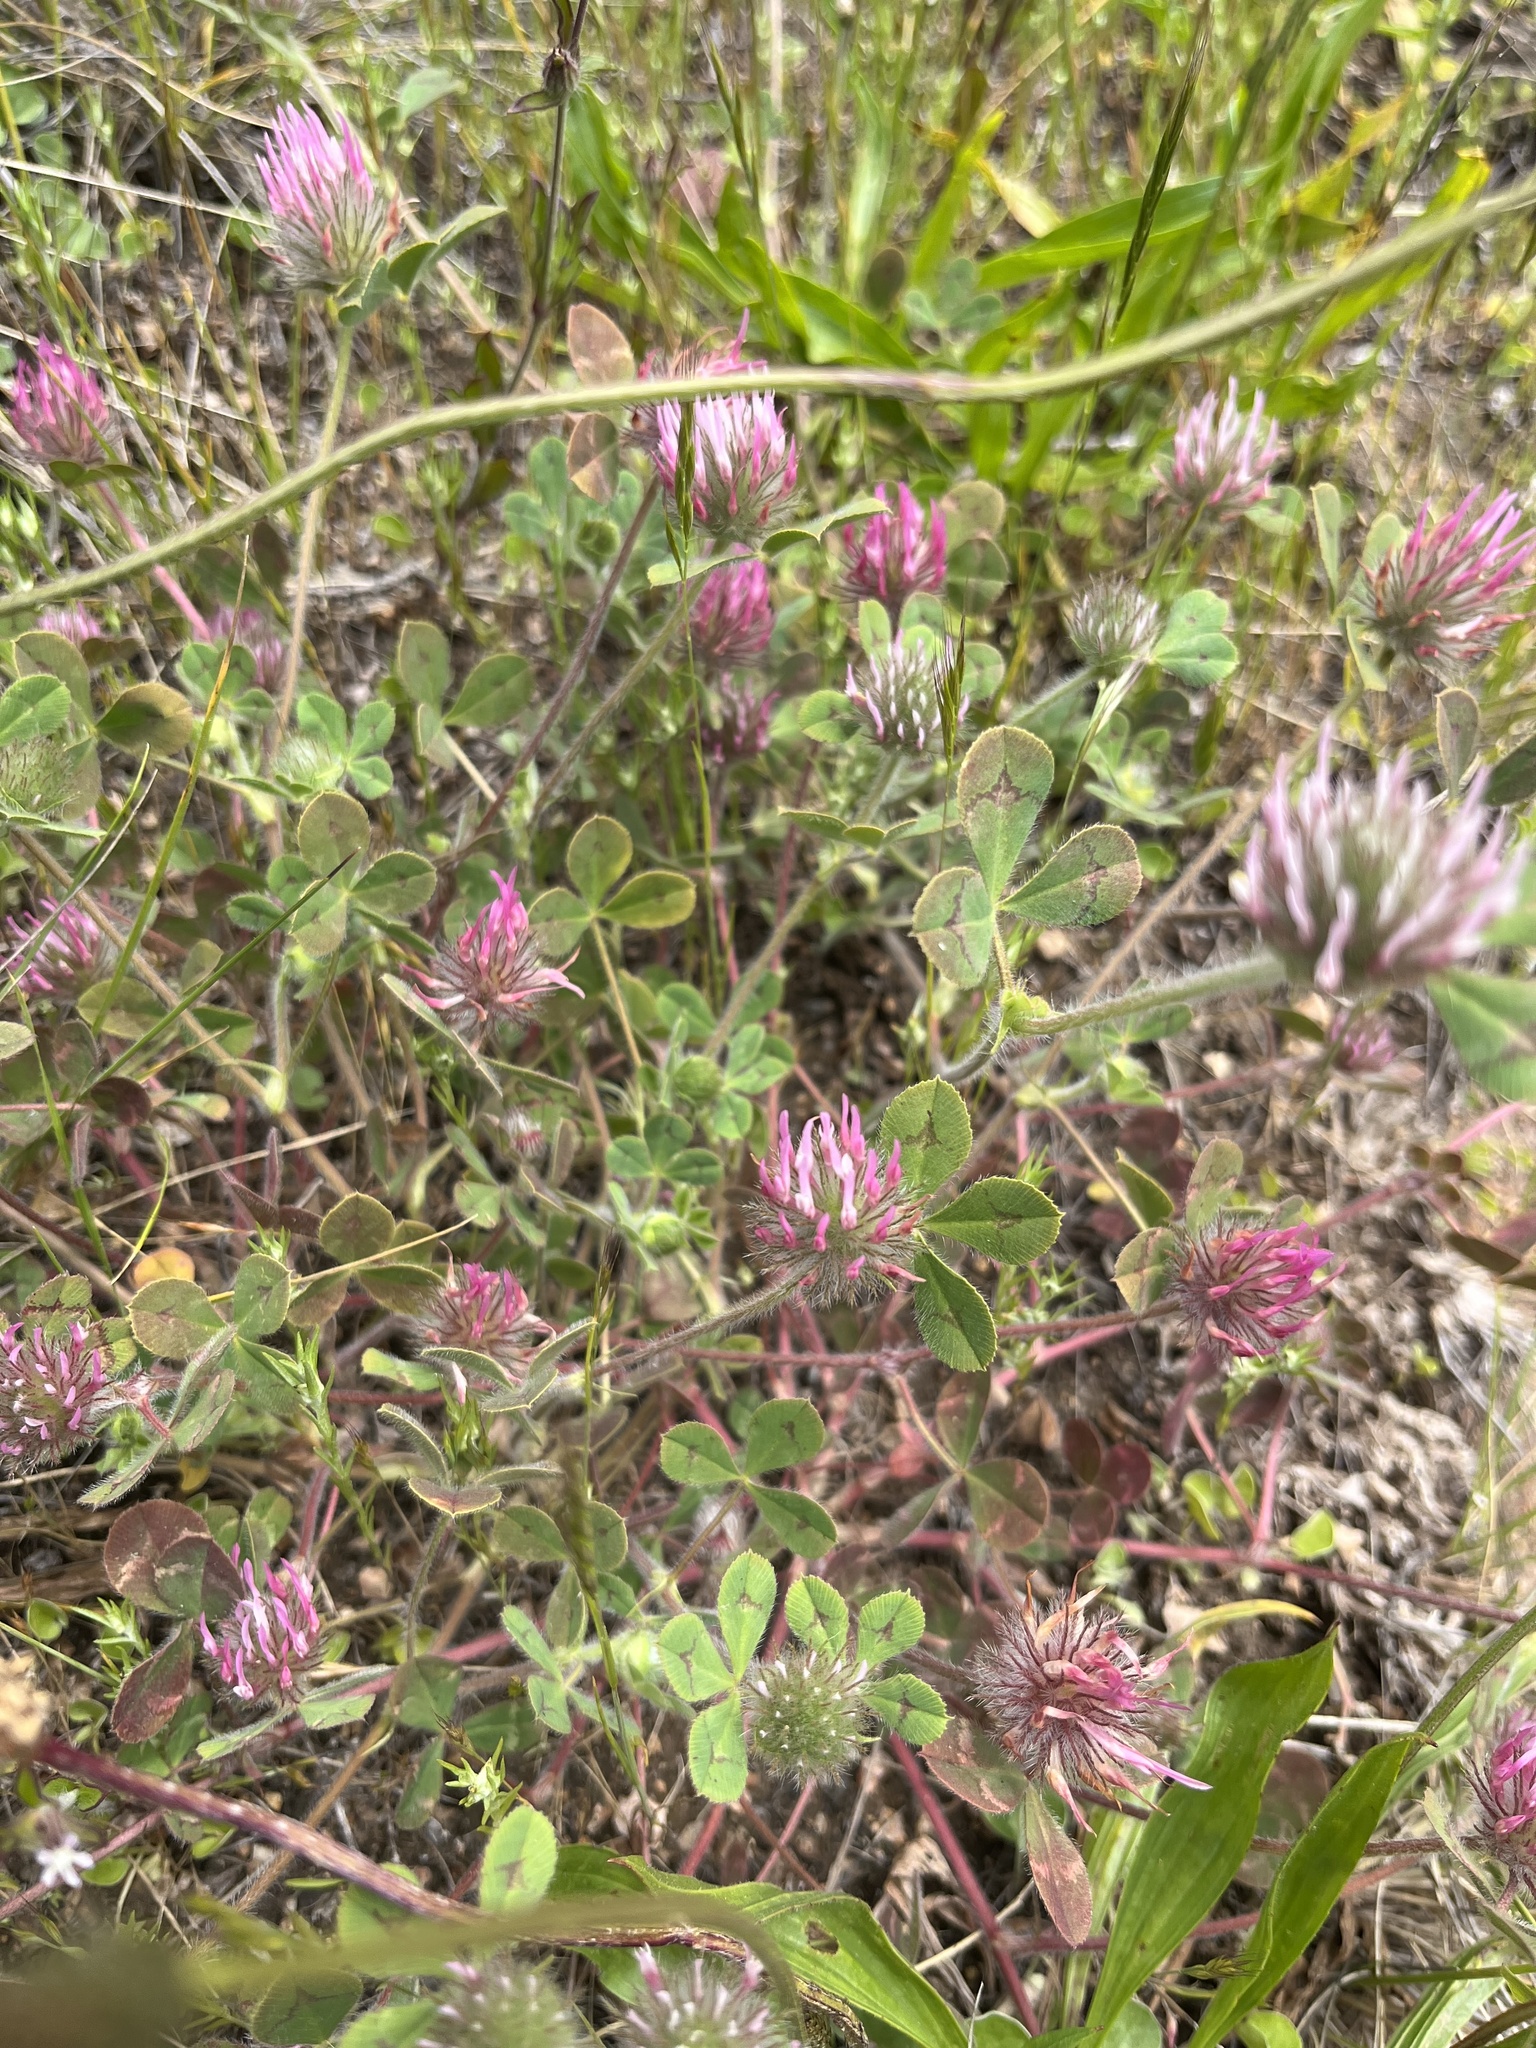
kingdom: Plantae
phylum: Tracheophyta
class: Magnoliopsida
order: Fabales
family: Fabaceae
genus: Trifolium
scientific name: Trifolium hirtum
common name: Rose clover
